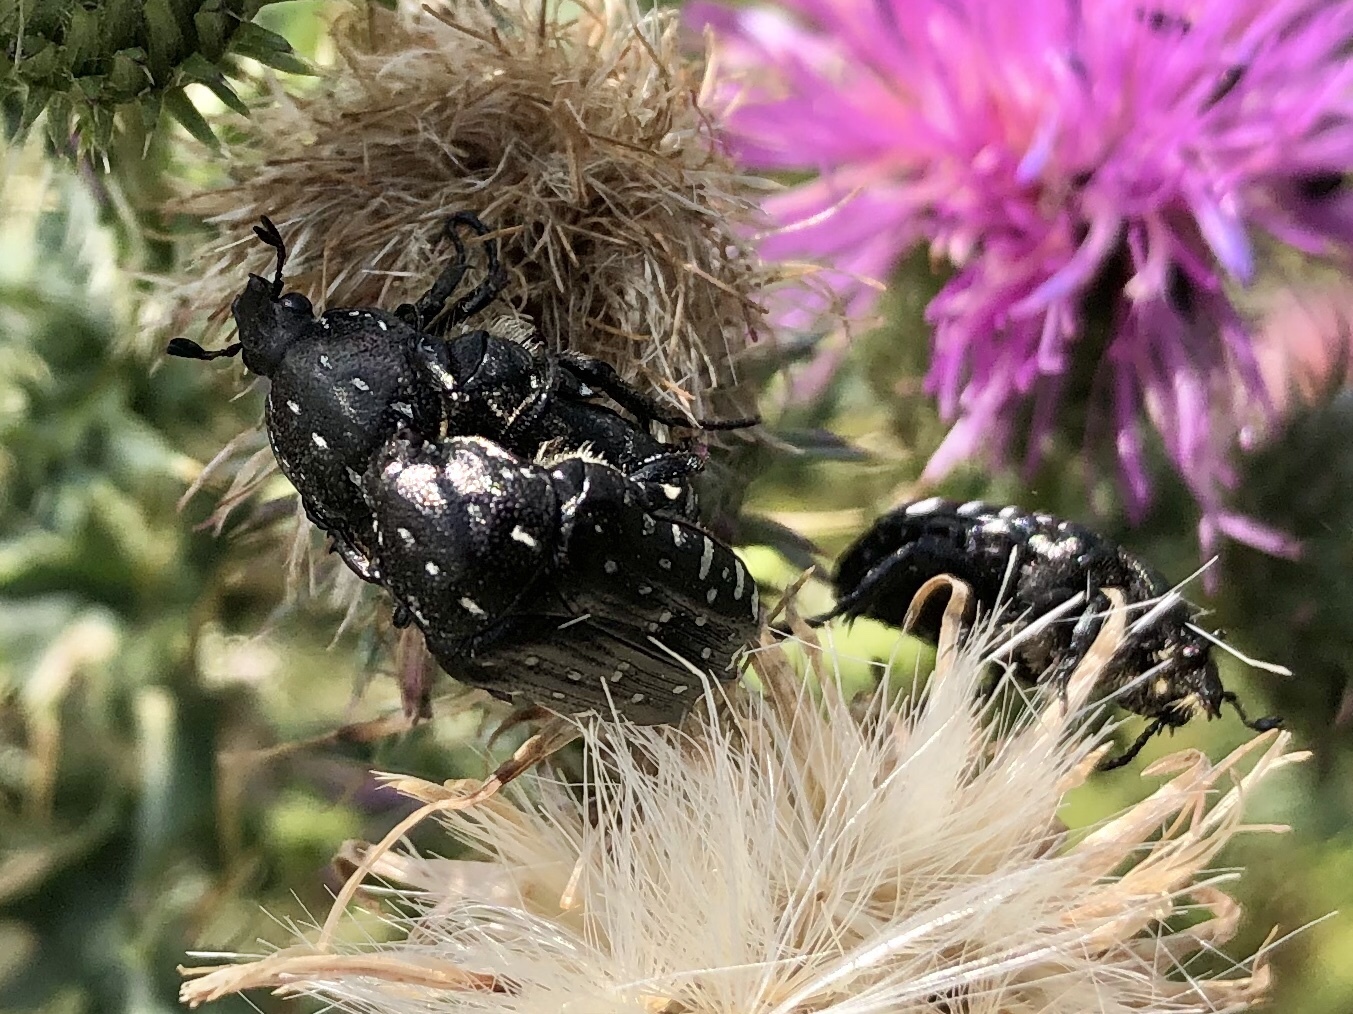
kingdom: Animalia
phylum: Arthropoda
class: Insecta
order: Coleoptera
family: Scarabaeidae
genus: Oxythyrea
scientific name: Oxythyrea funesta
